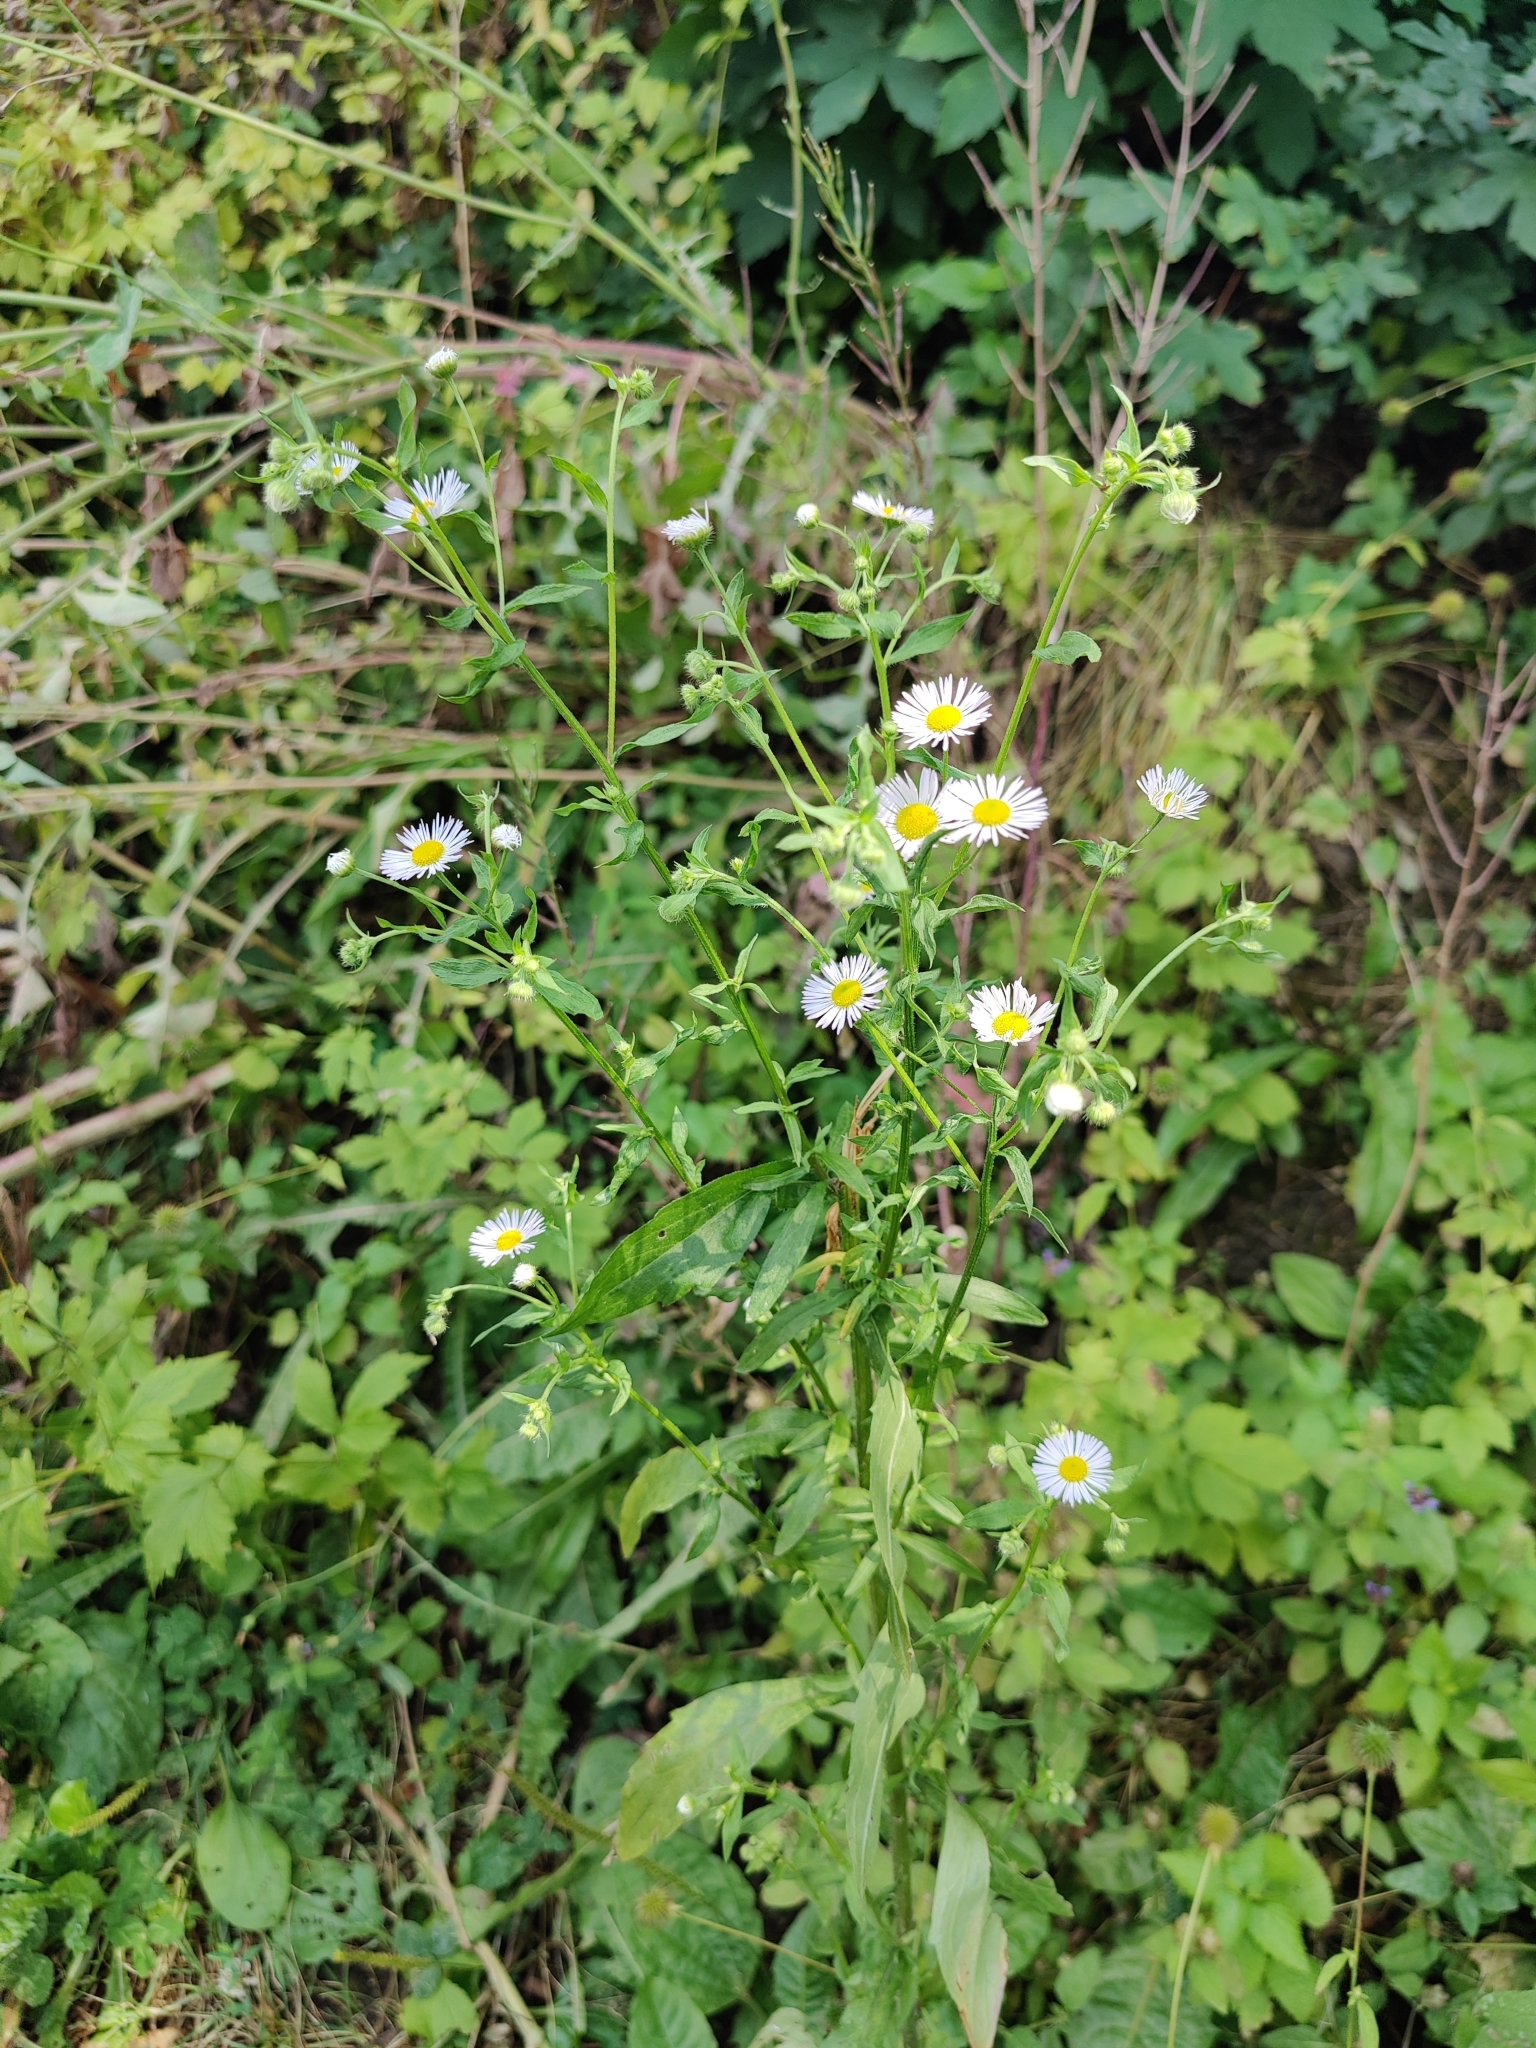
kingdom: Plantae
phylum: Tracheophyta
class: Magnoliopsida
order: Asterales
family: Asteraceae
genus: Erigeron
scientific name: Erigeron annuus
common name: Tall fleabane
